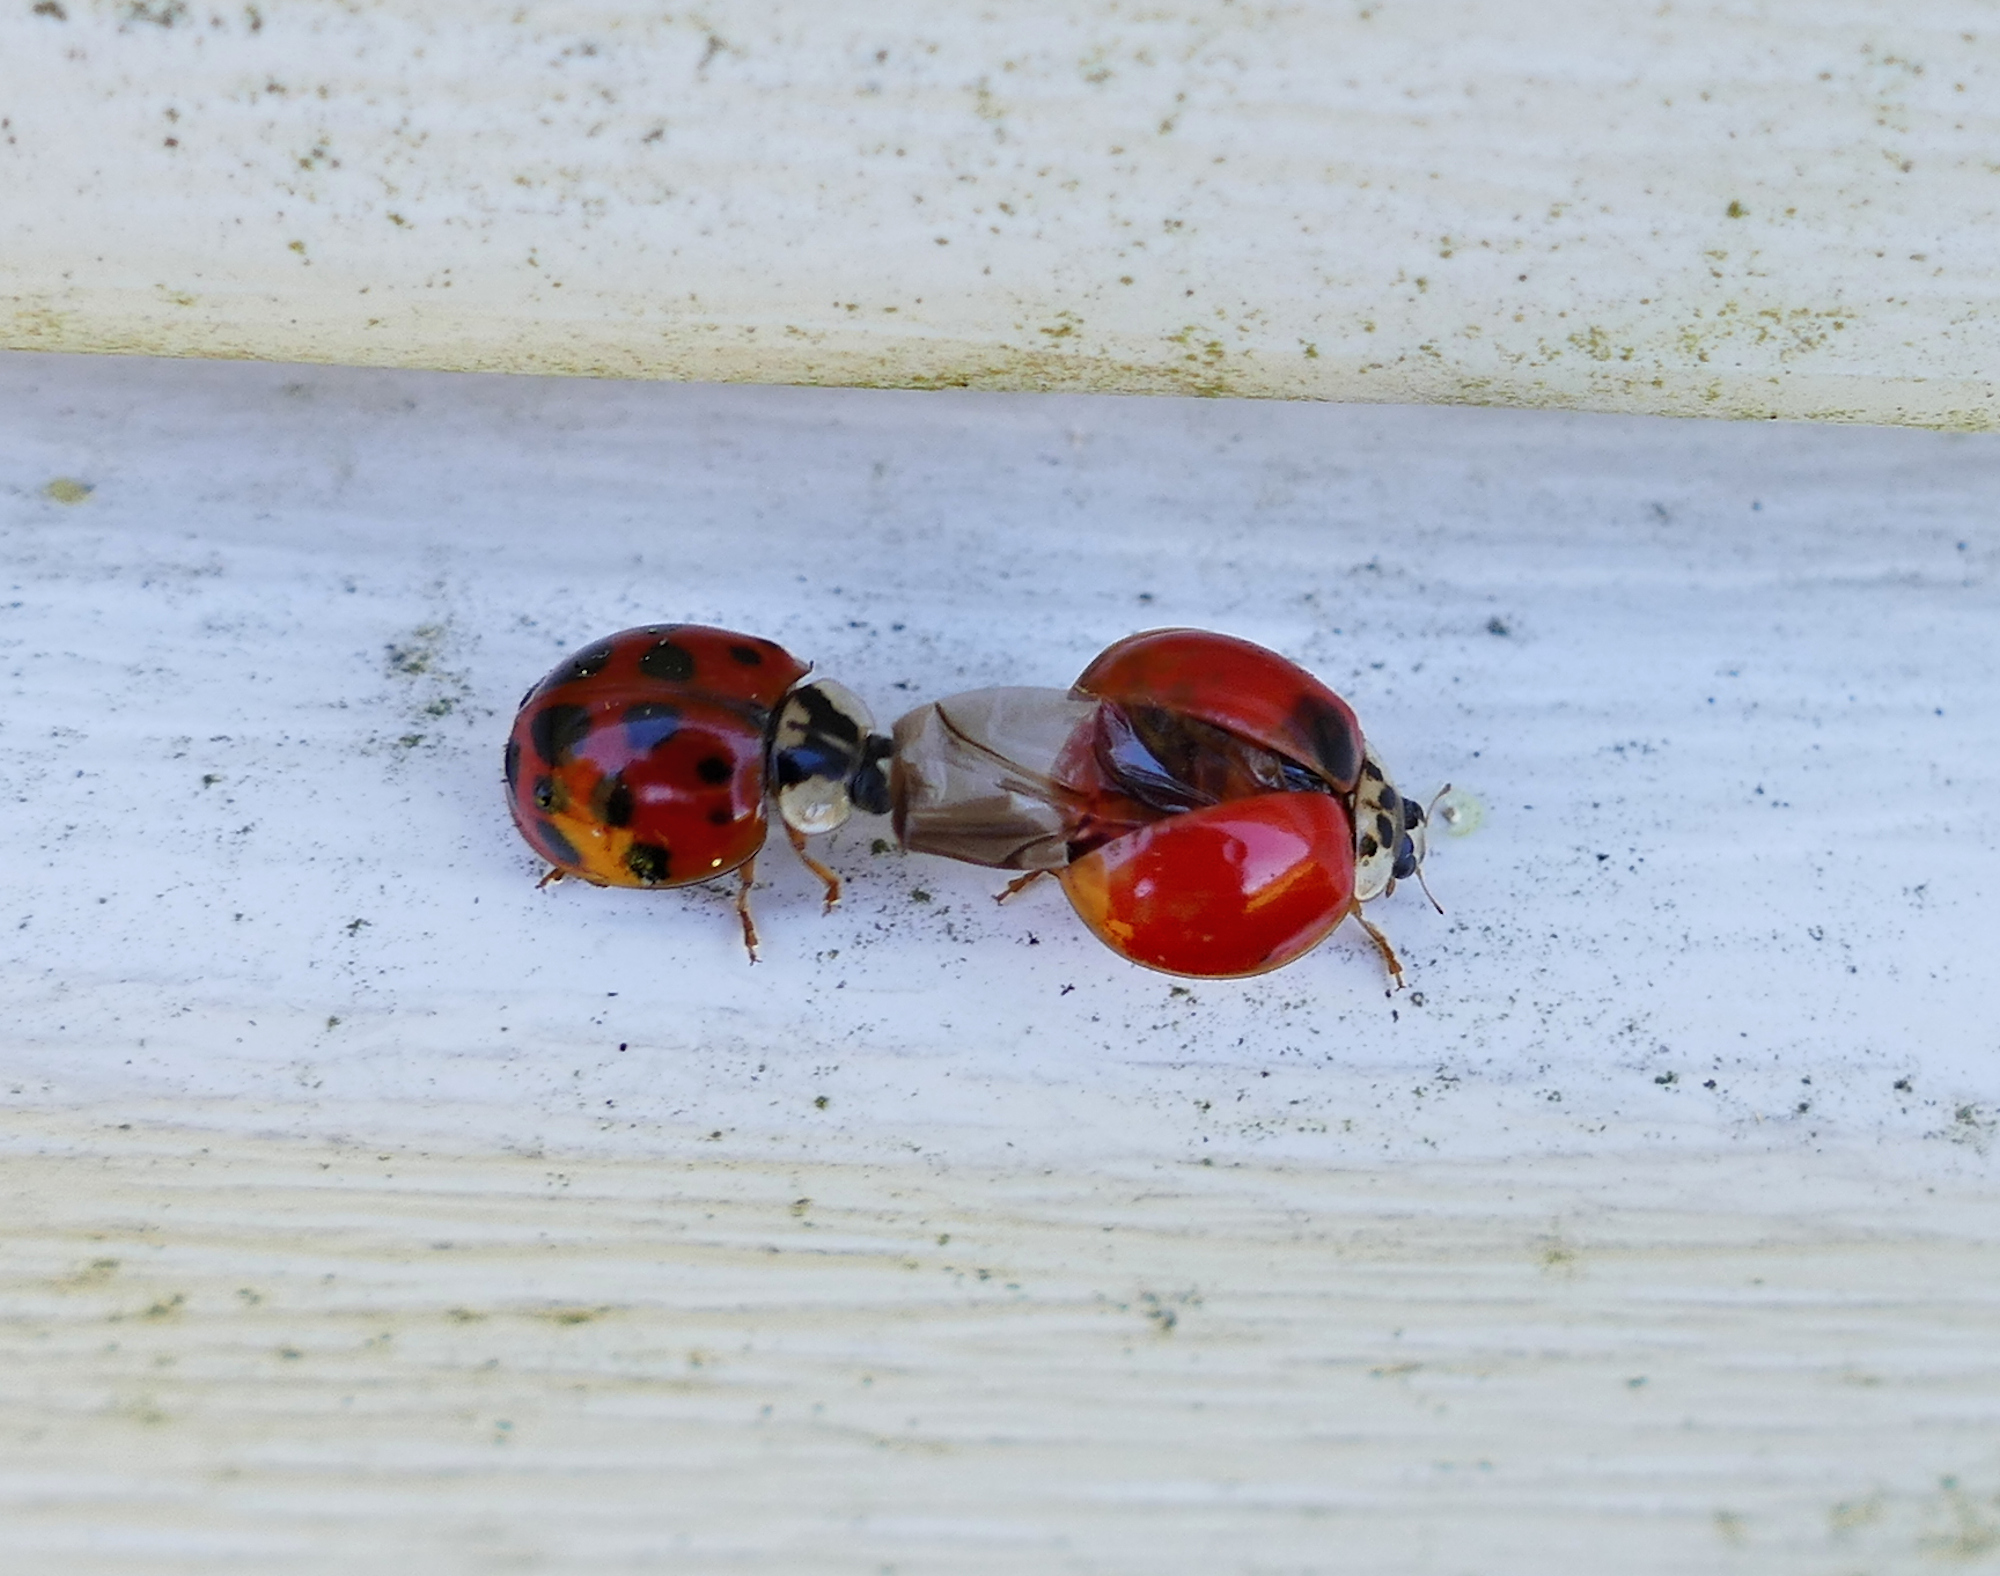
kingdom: Animalia
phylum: Arthropoda
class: Insecta
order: Coleoptera
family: Coccinellidae
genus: Harmonia
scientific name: Harmonia axyridis
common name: Harlequin ladybird
